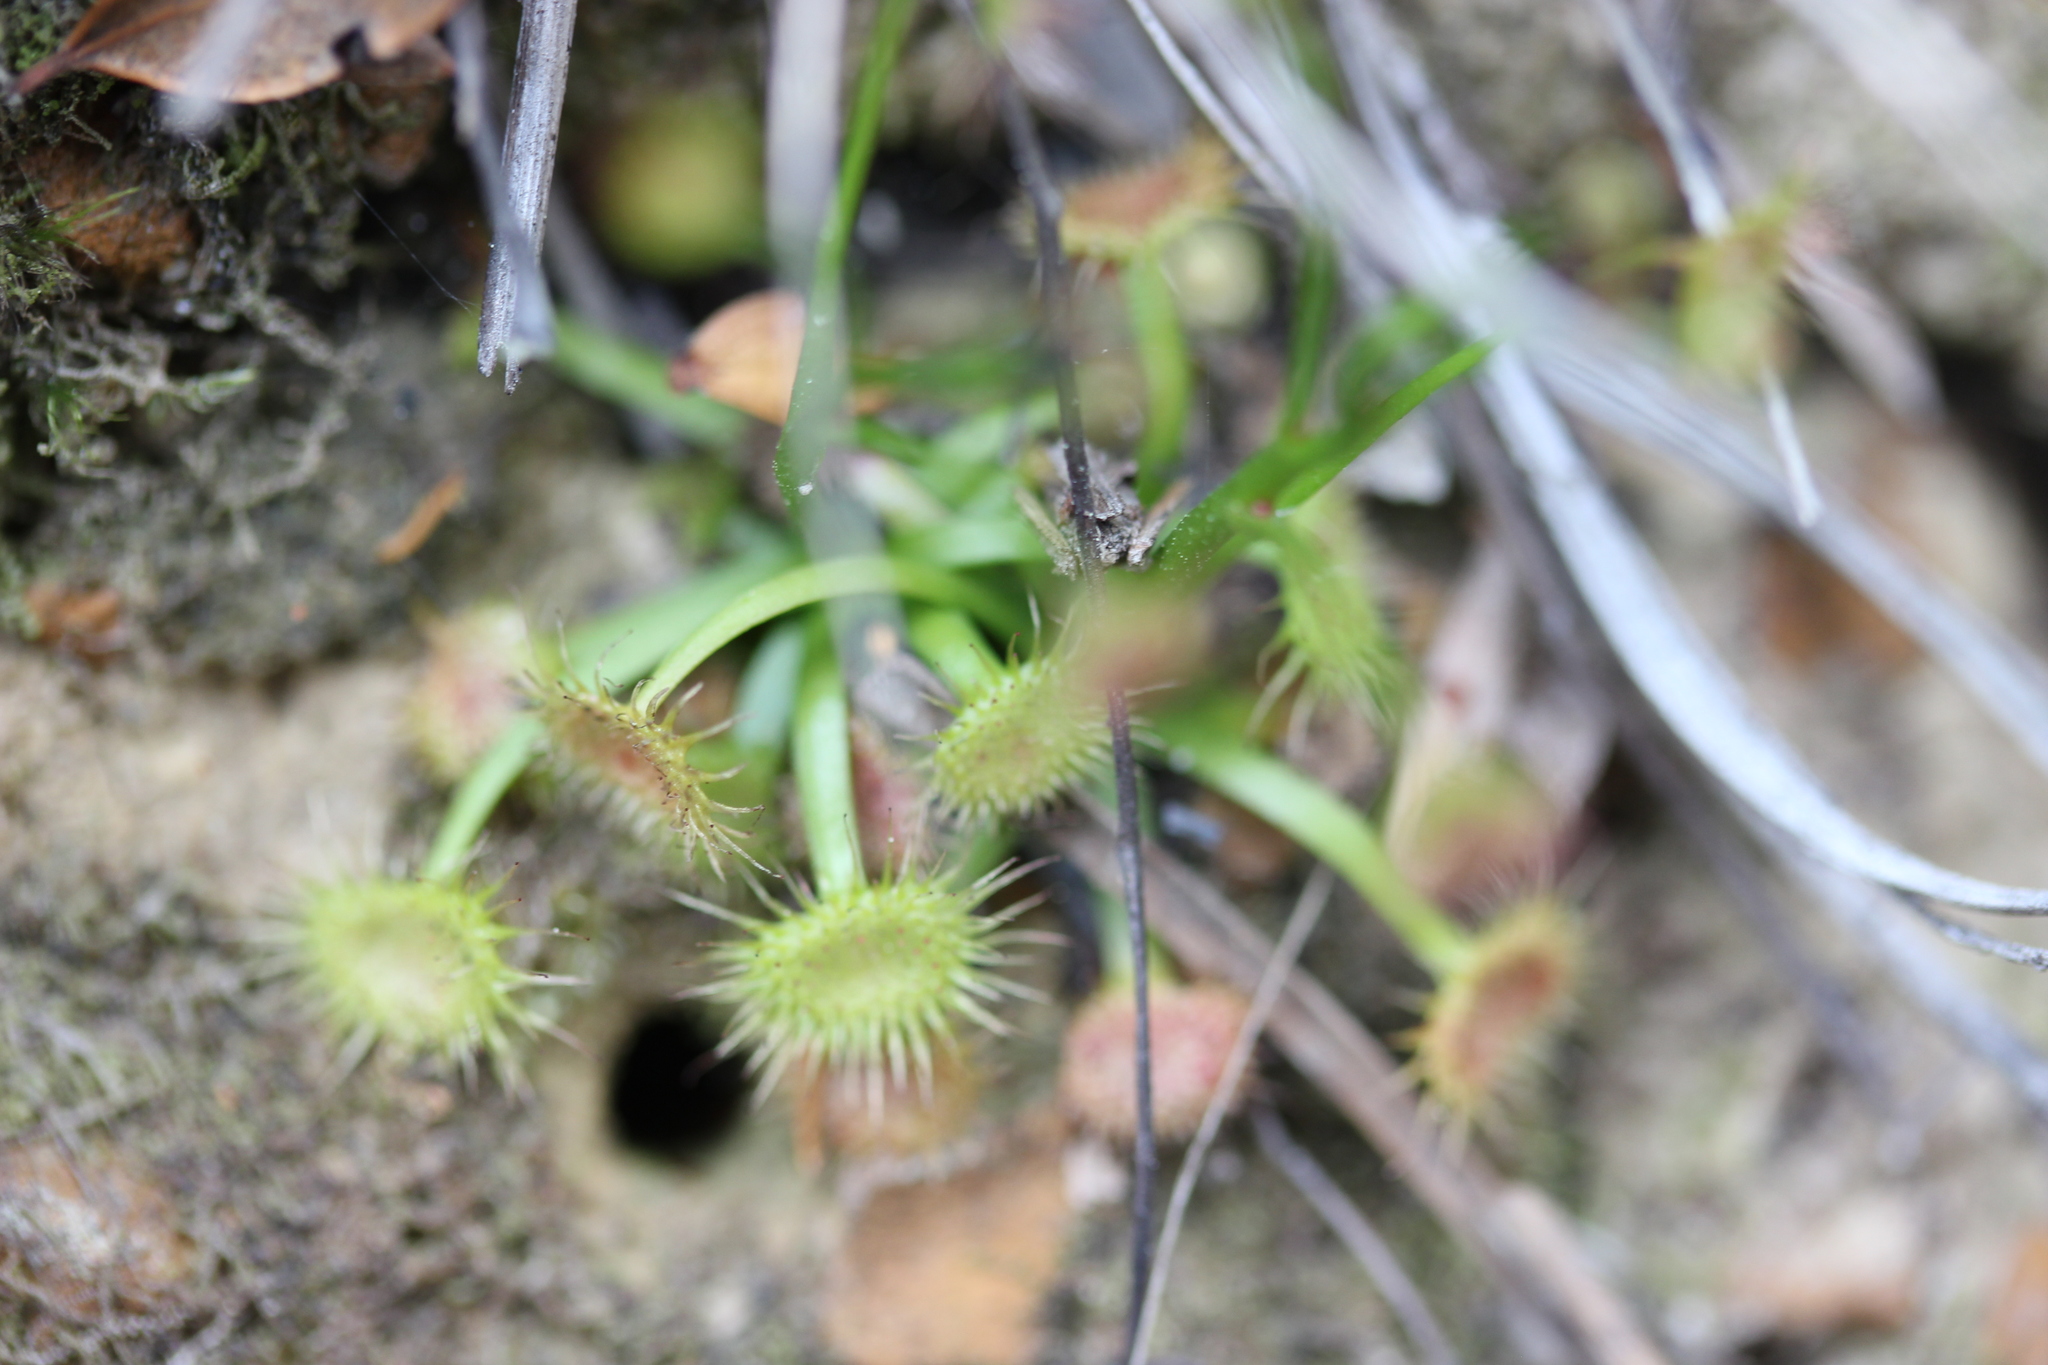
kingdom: Plantae
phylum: Tracheophyta
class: Magnoliopsida
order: Caryophyllales
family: Droseraceae
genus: Drosera
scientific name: Drosera peltata
